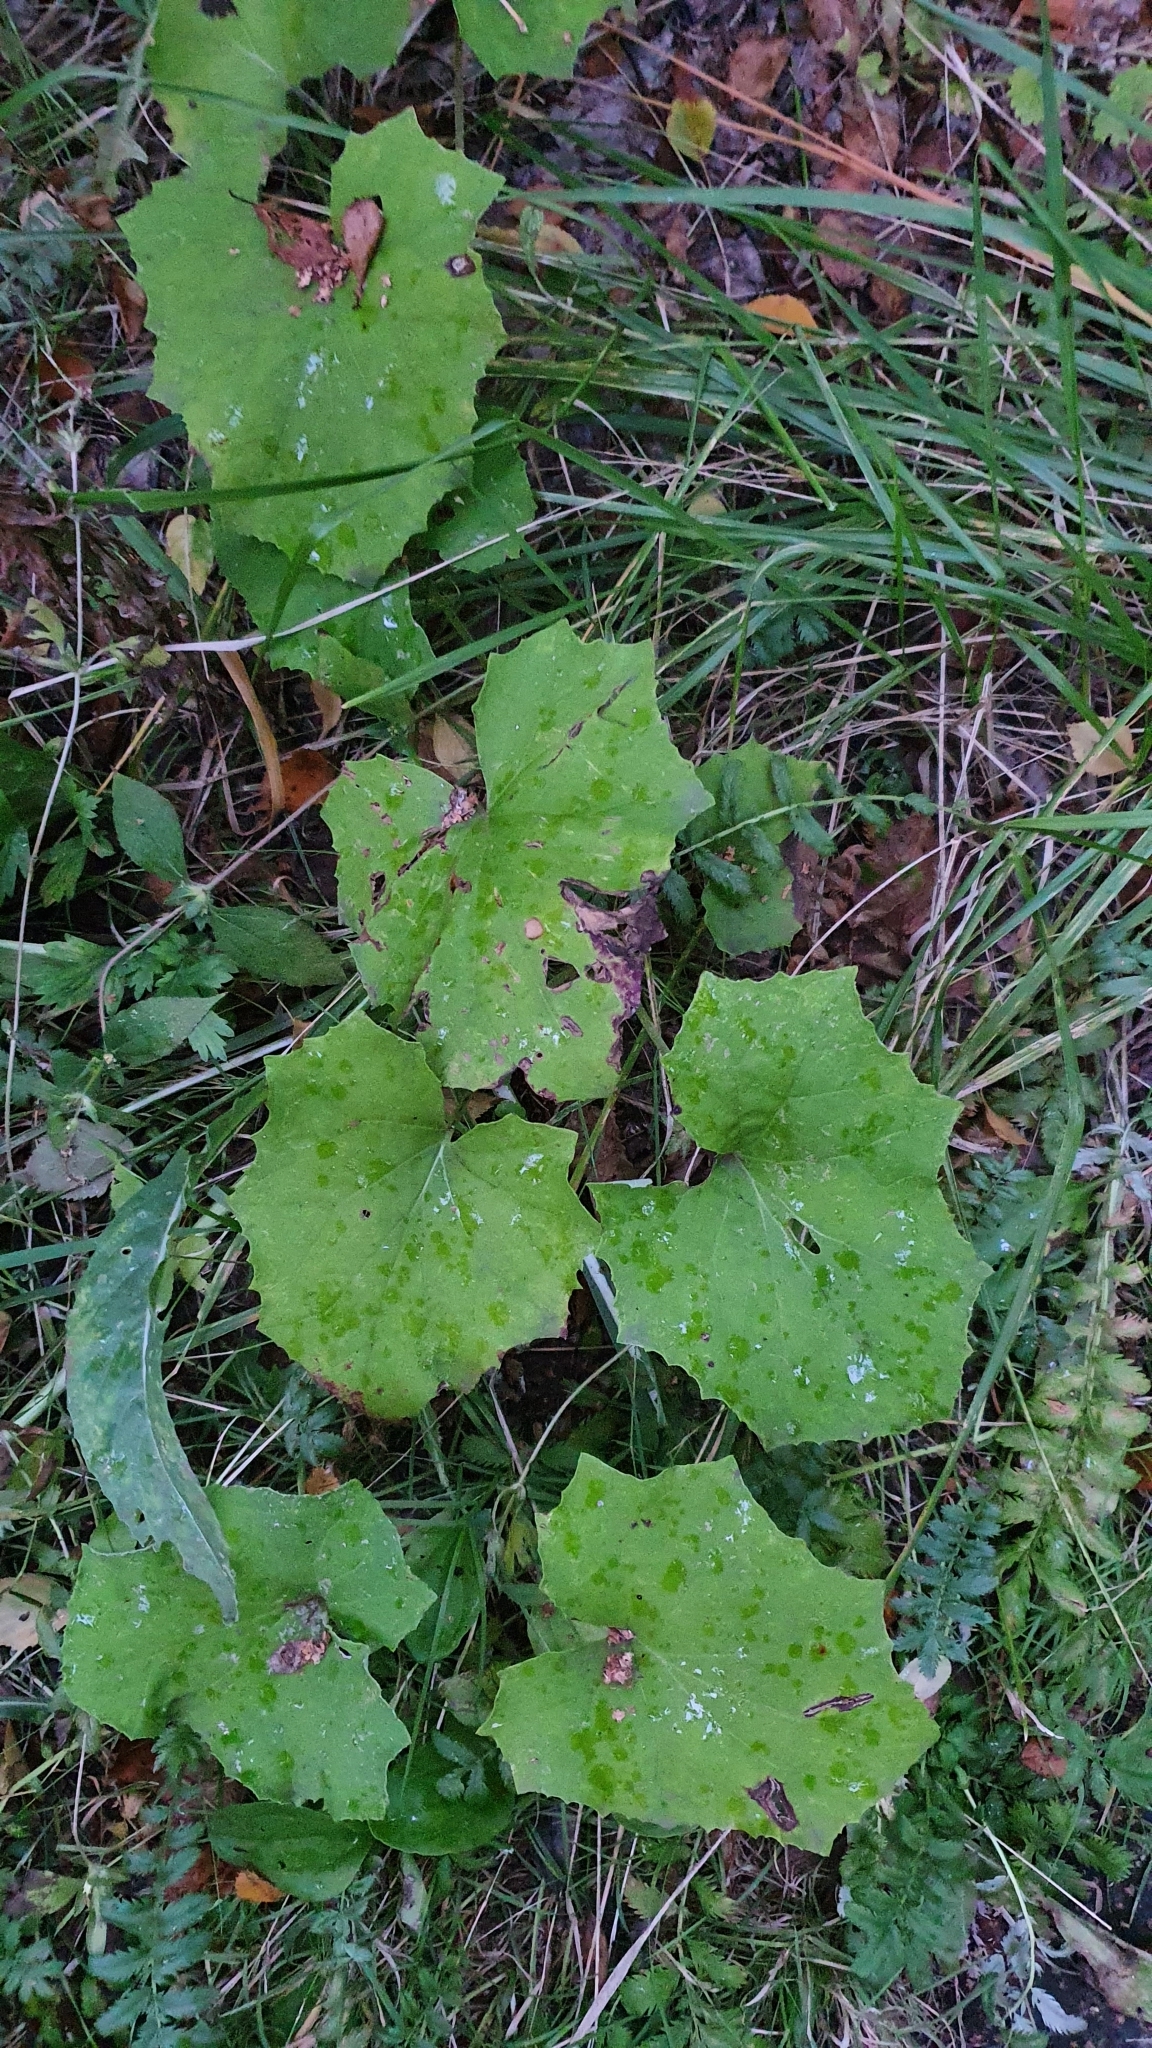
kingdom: Plantae
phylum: Tracheophyta
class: Magnoliopsida
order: Asterales
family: Asteraceae
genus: Tussilago
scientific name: Tussilago farfara
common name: Coltsfoot
